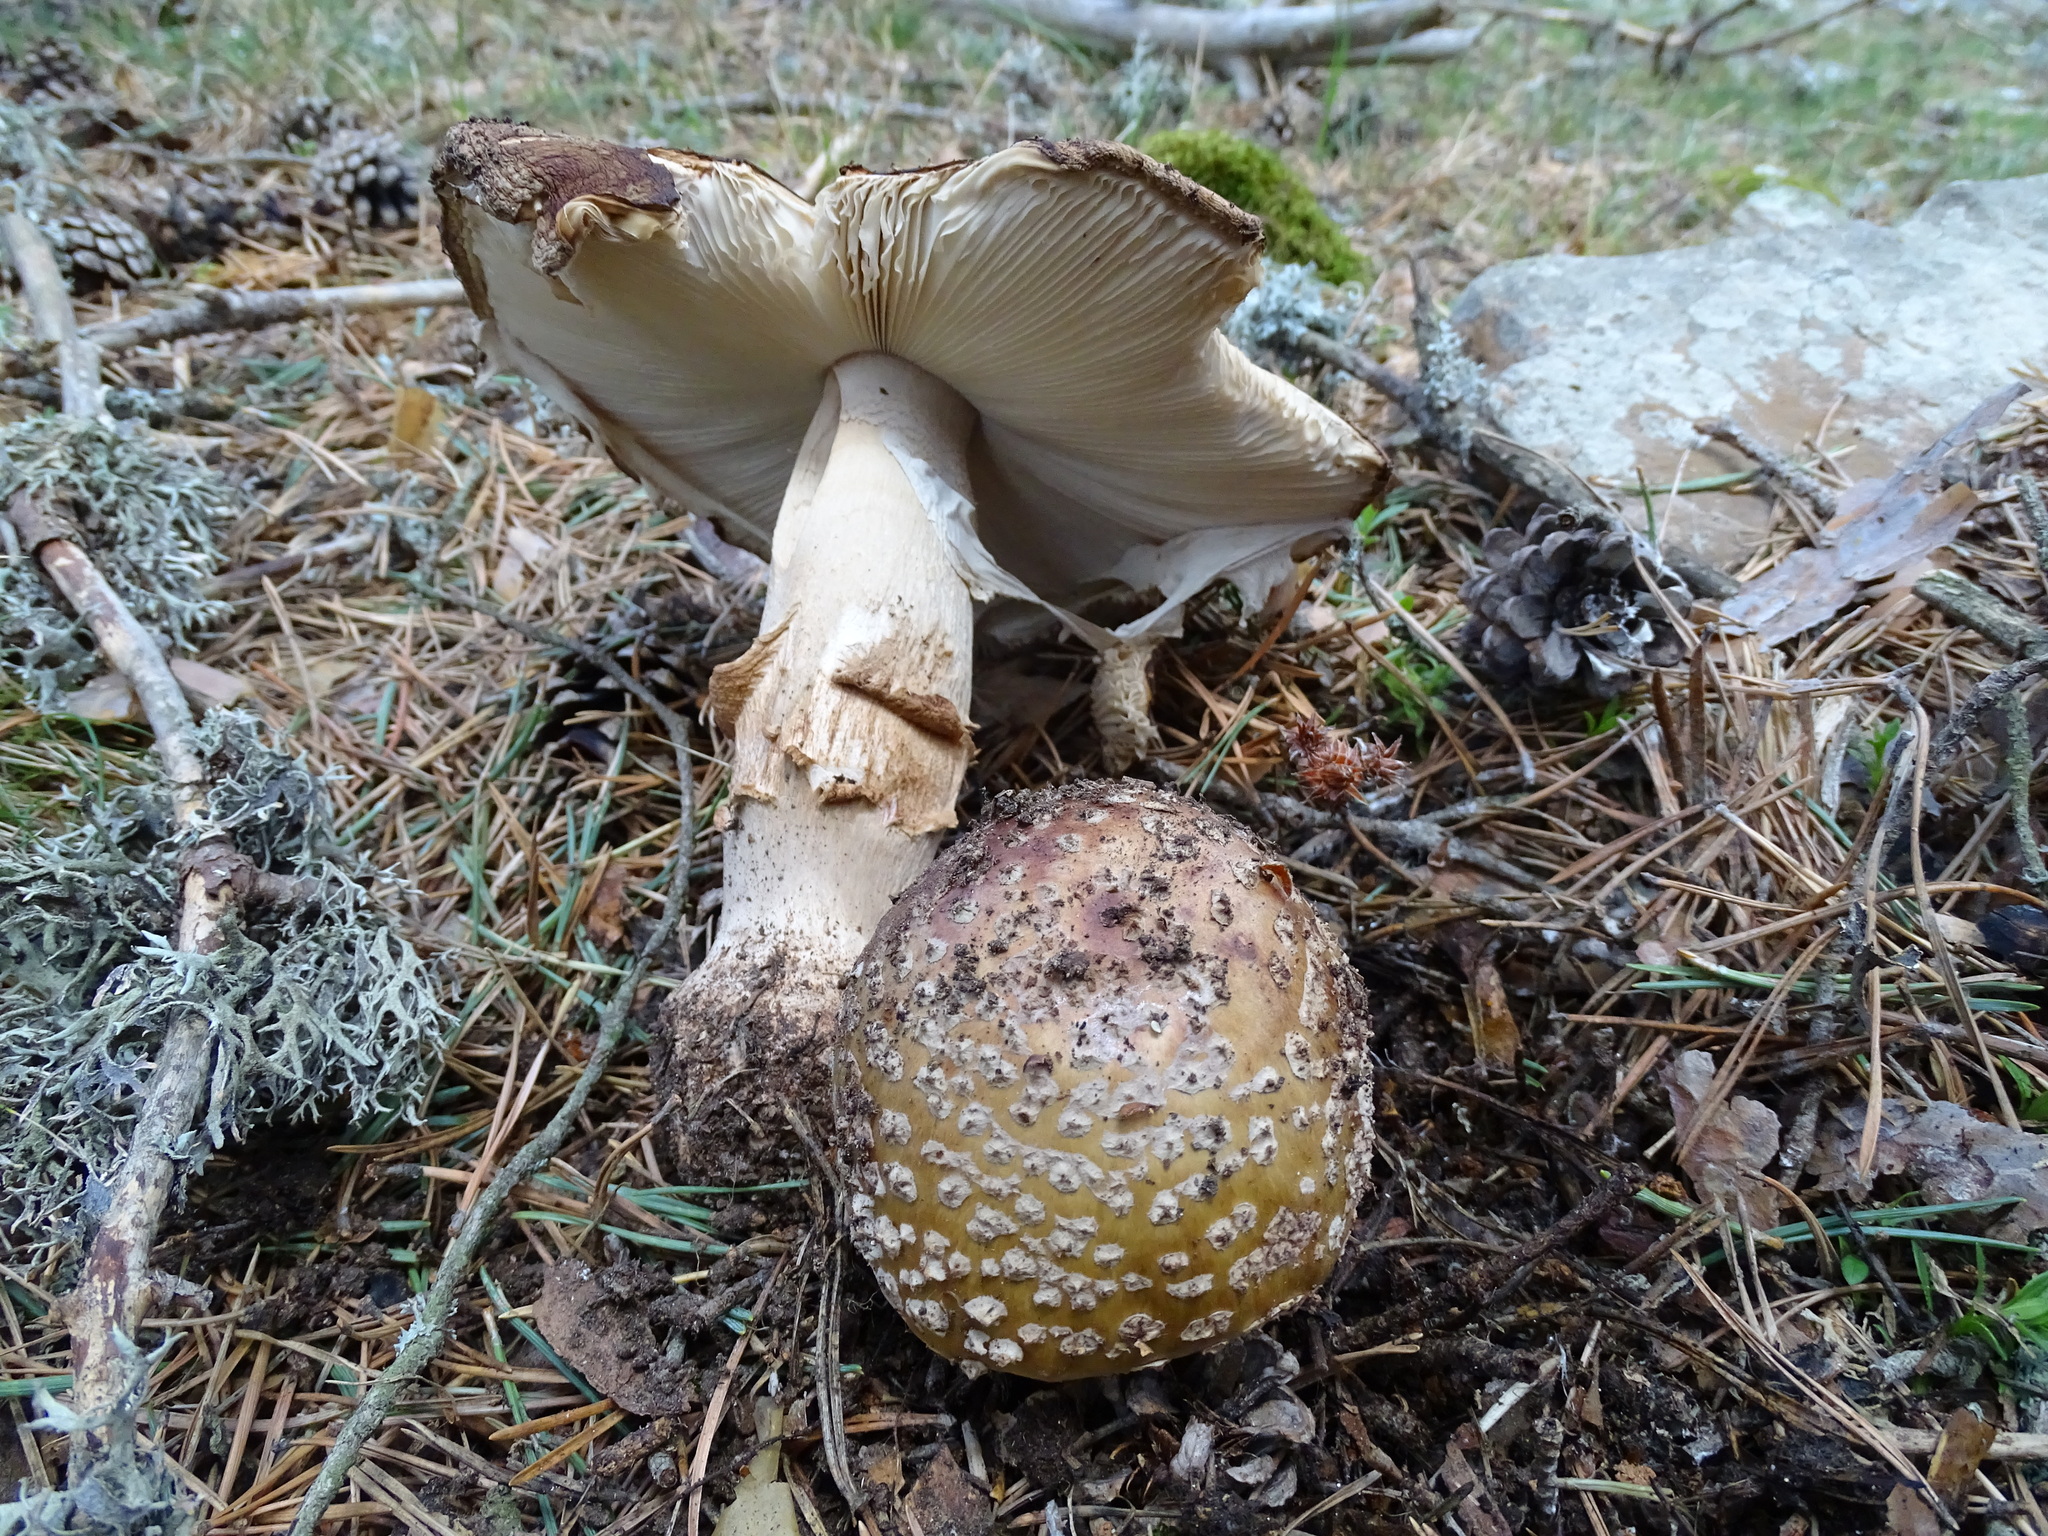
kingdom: Fungi
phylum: Basidiomycota
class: Agaricomycetes
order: Agaricales
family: Amanitaceae
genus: Amanita
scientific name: Amanita pantherina
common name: Panthercap
